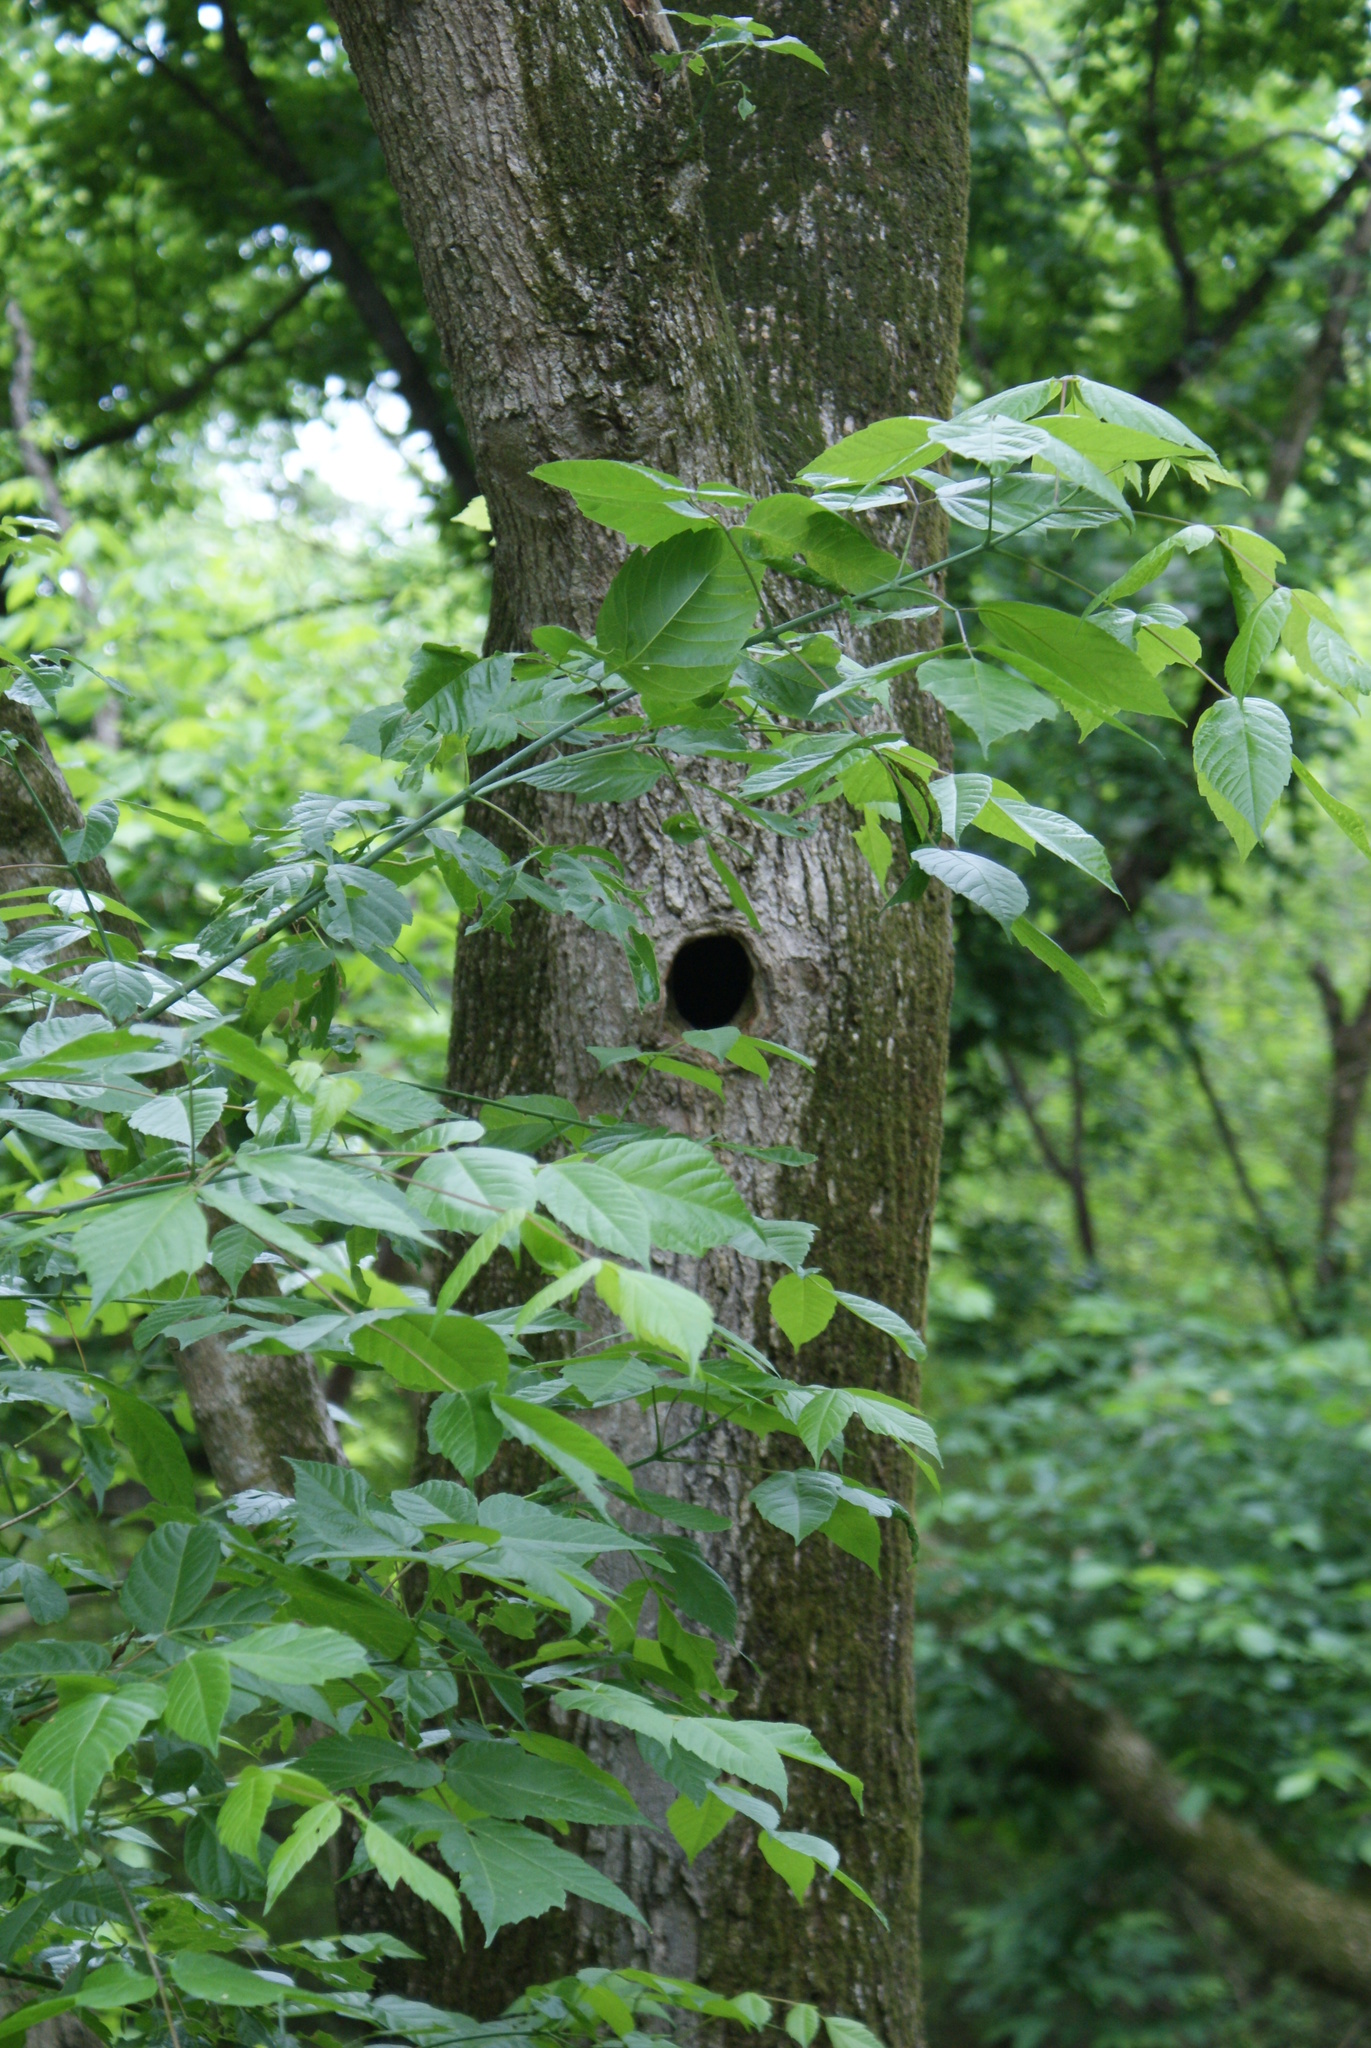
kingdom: Plantae
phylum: Tracheophyta
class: Magnoliopsida
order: Sapindales
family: Sapindaceae
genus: Acer
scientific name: Acer negundo
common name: Ashleaf maple
